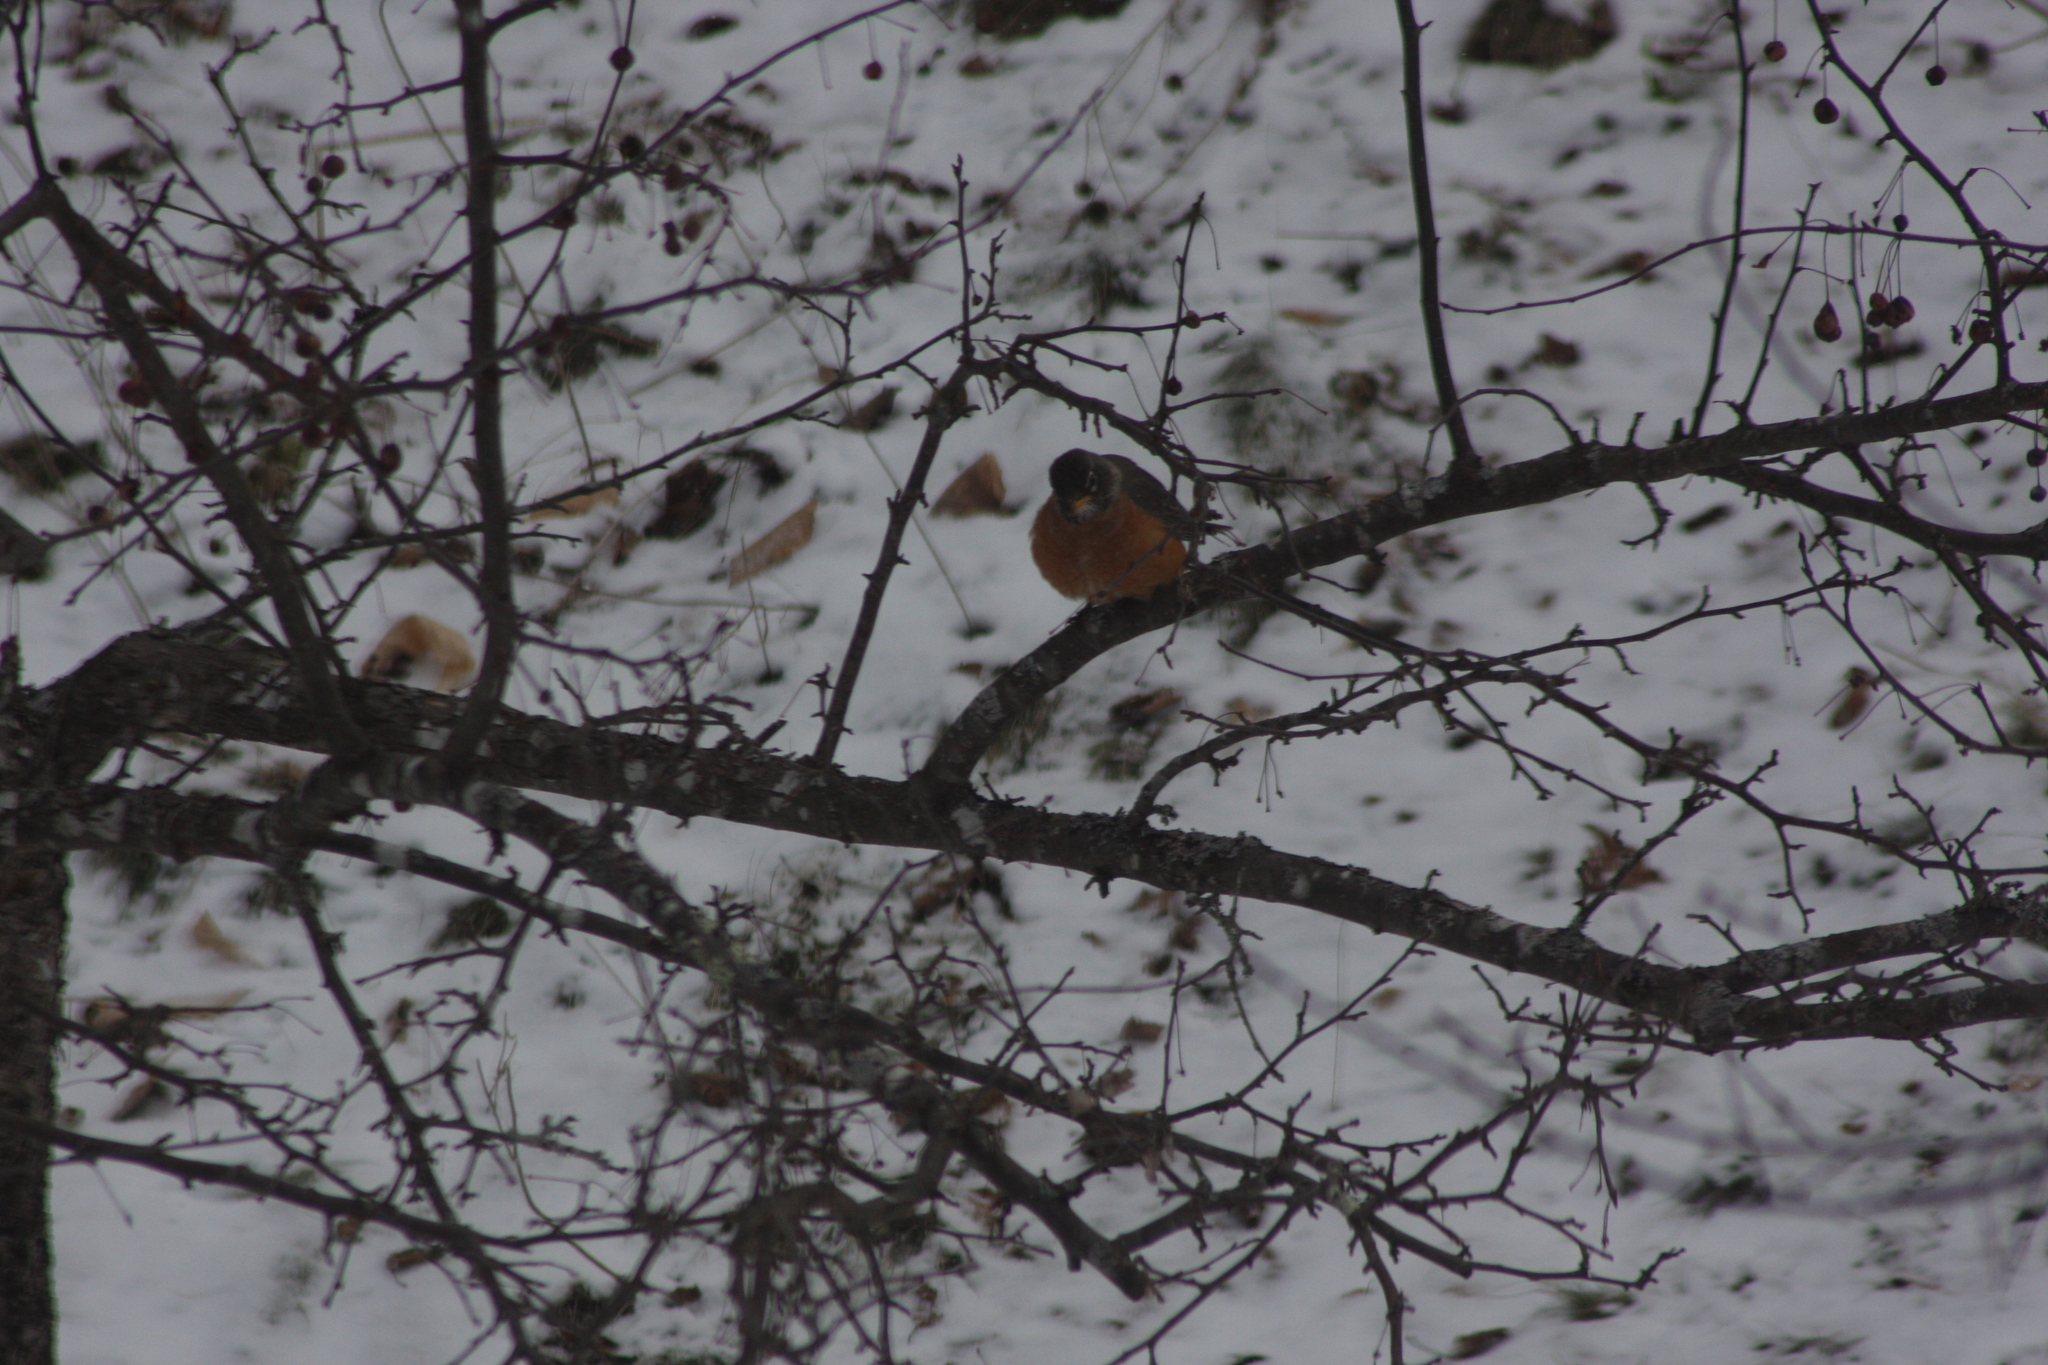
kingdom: Animalia
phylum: Chordata
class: Aves
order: Passeriformes
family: Turdidae
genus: Turdus
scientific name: Turdus migratorius
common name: American robin
